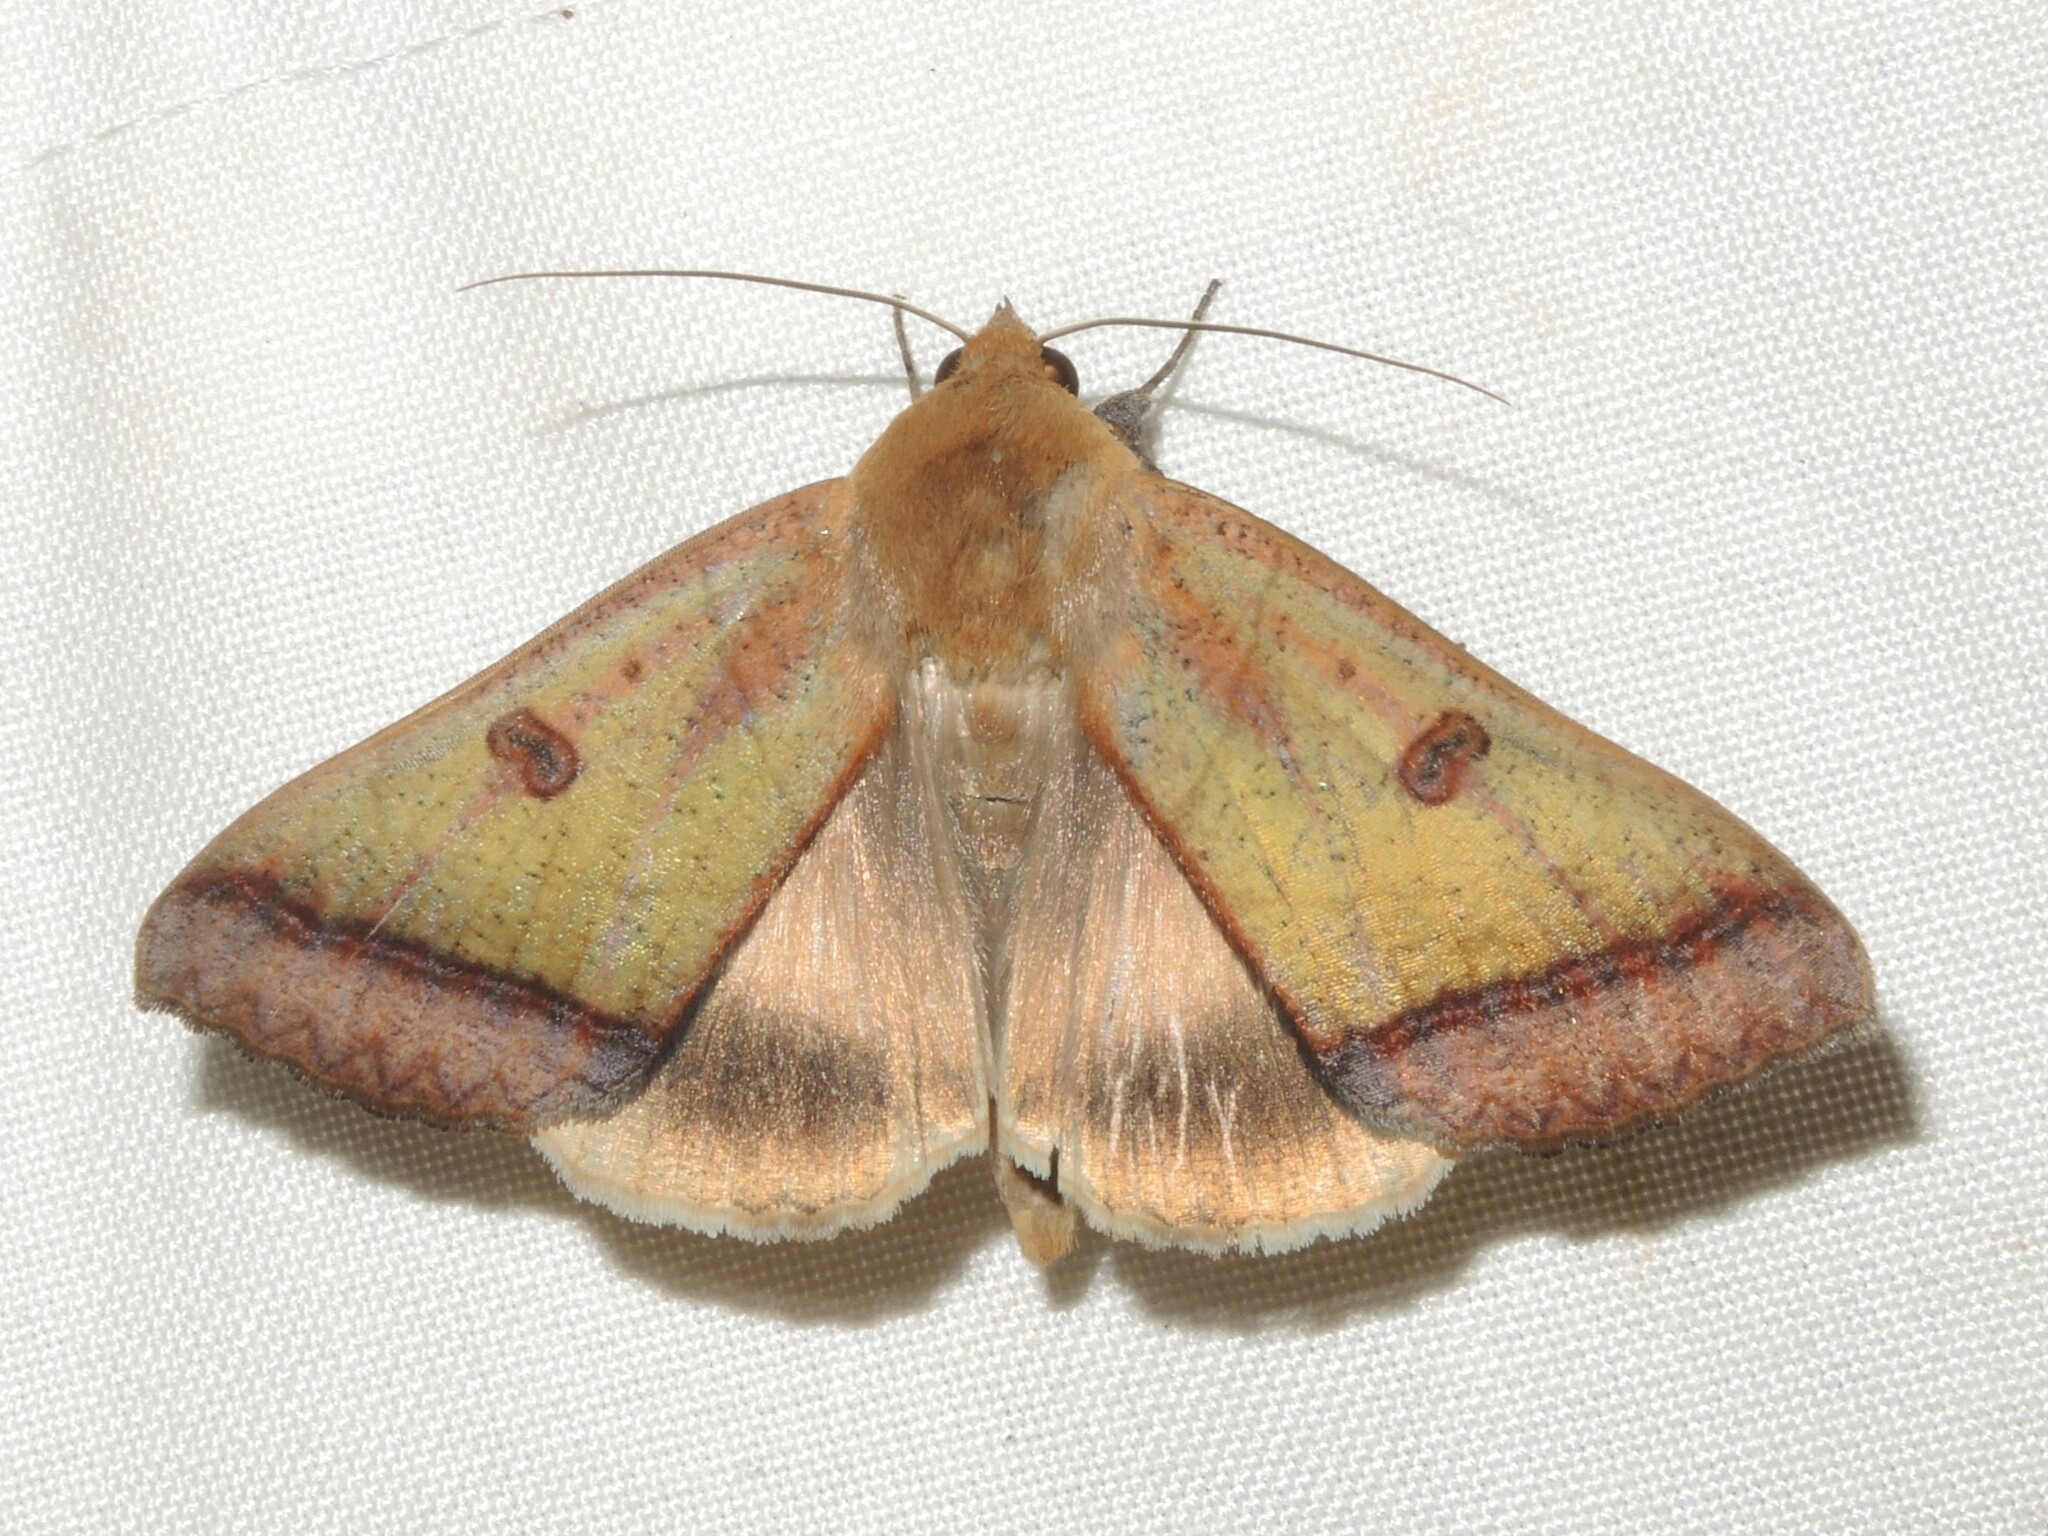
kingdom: Animalia
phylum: Arthropoda
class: Insecta
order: Lepidoptera
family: Erebidae
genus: Ophiusa
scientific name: Ophiusa trapezium
